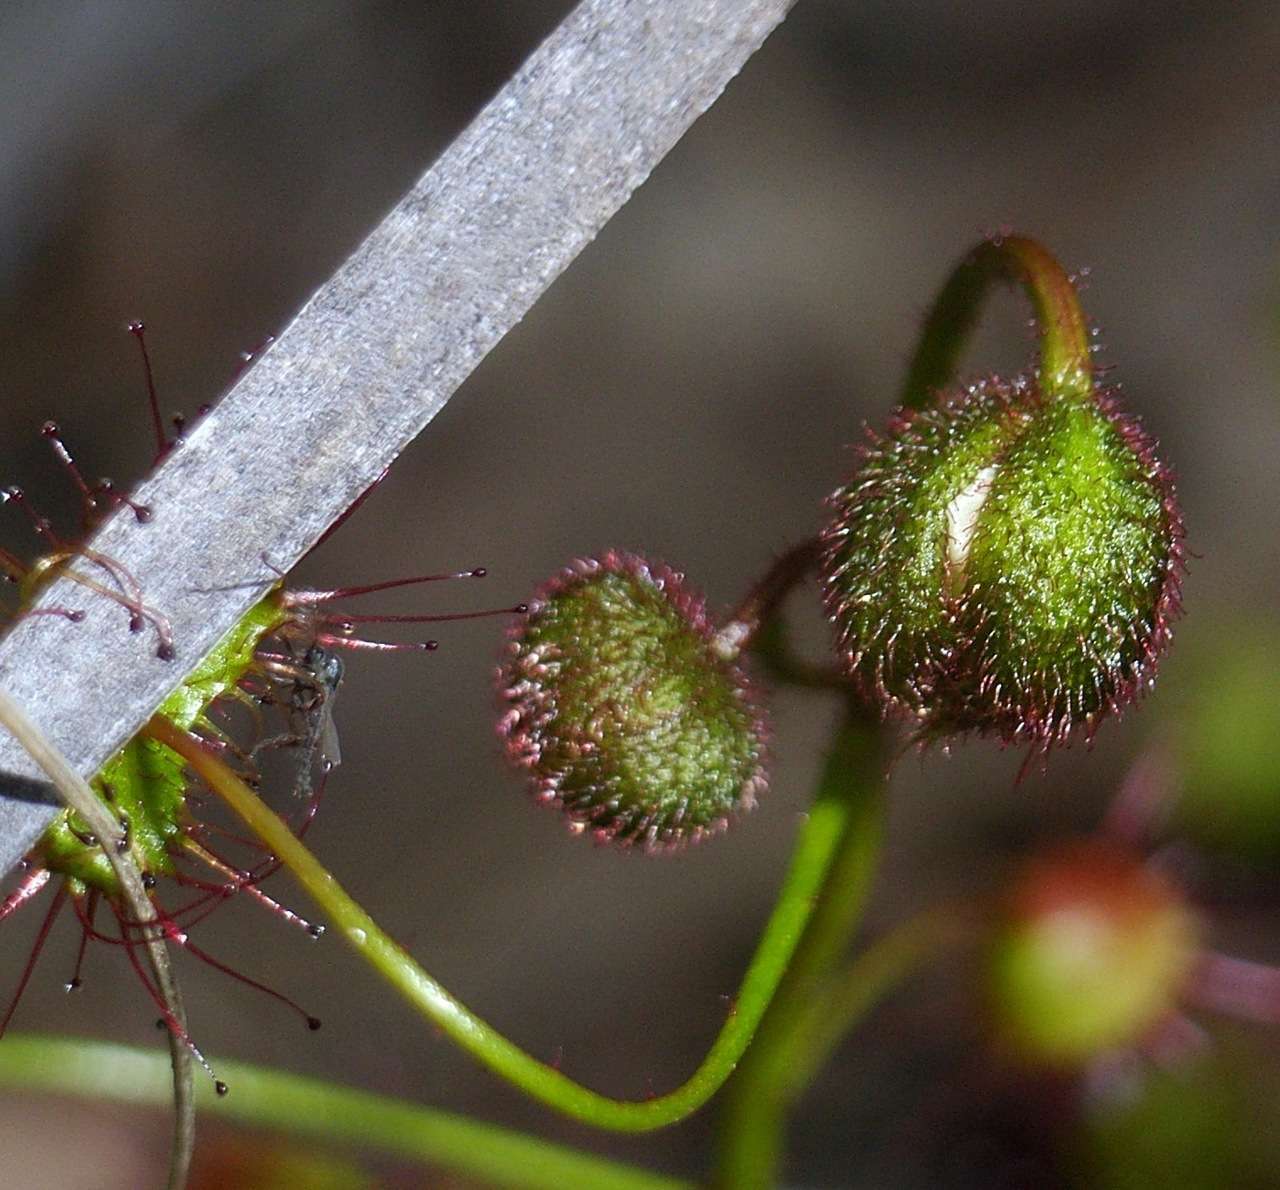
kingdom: Plantae
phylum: Tracheophyta
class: Magnoliopsida
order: Caryophyllales
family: Droseraceae
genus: Drosera
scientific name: Drosera planchonii
